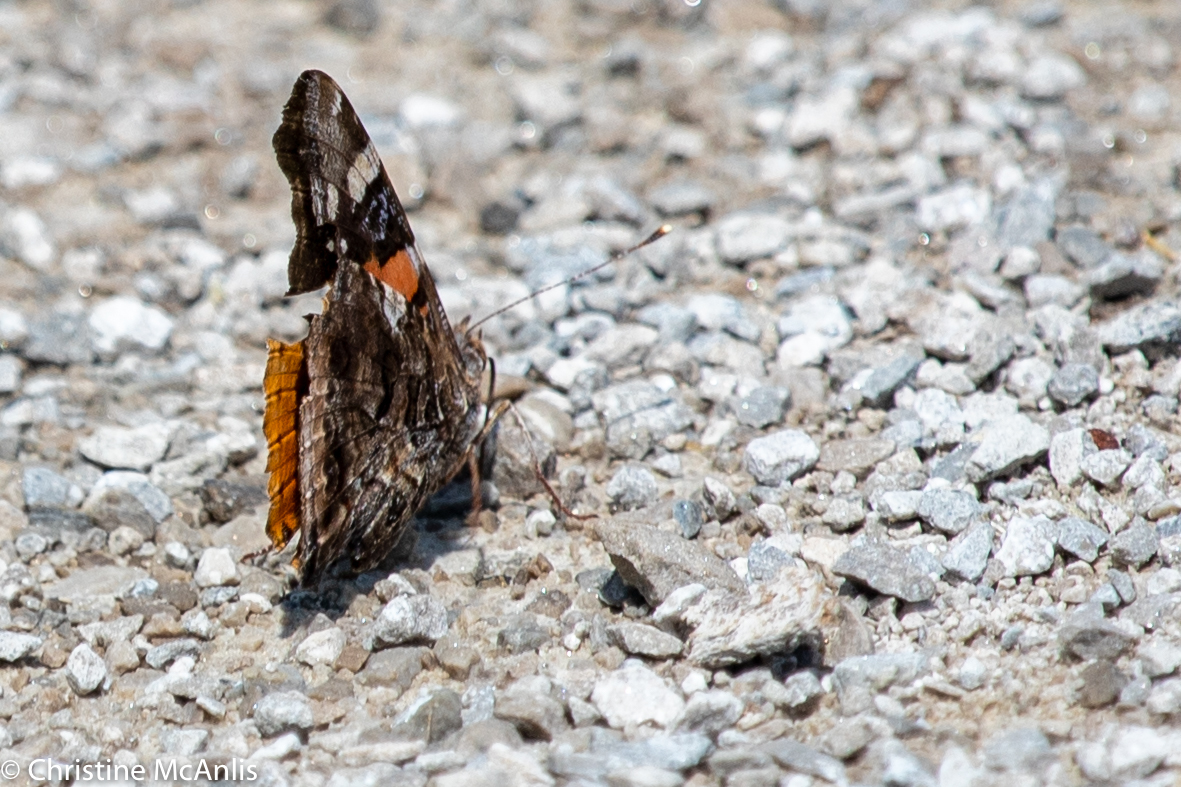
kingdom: Animalia
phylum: Arthropoda
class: Insecta
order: Lepidoptera
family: Nymphalidae
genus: Vanessa
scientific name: Vanessa atalanta
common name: Red admiral
